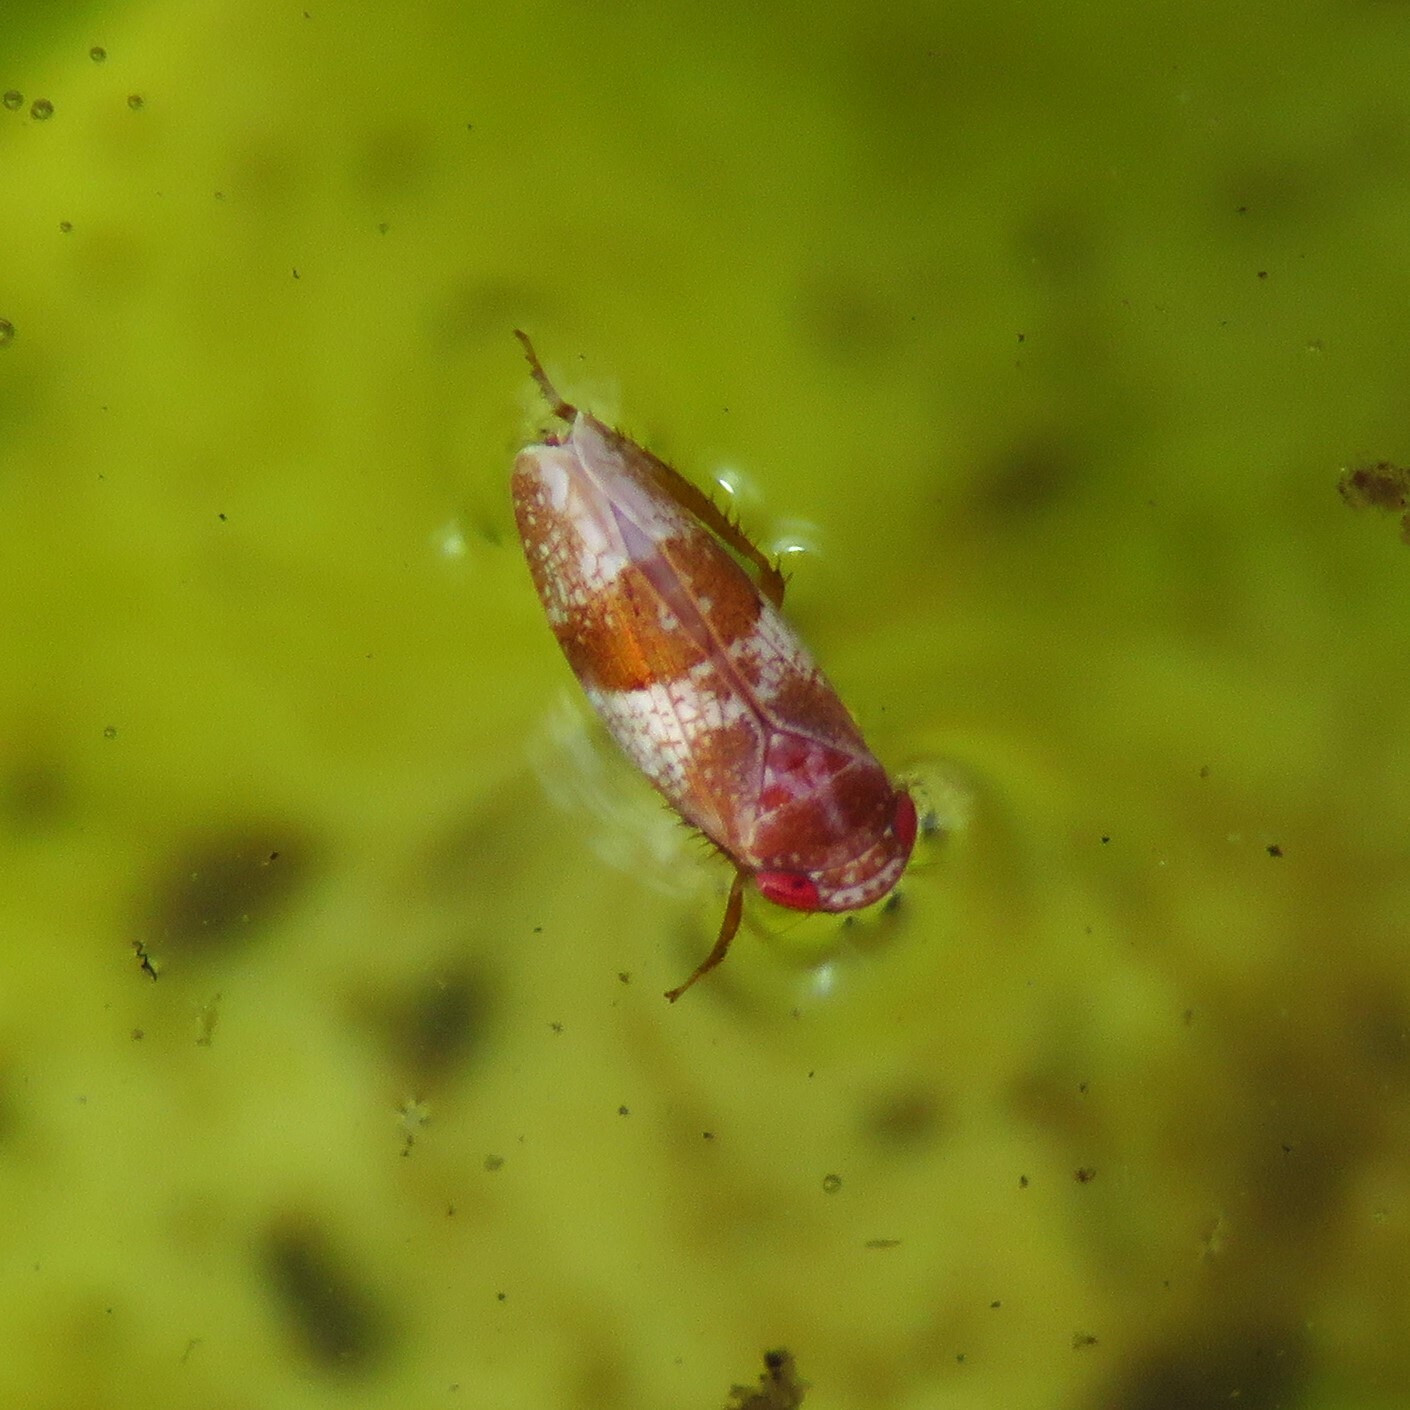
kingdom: Animalia
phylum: Arthropoda
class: Insecta
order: Hemiptera
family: Cicadellidae
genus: Norvellina
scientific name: Norvellina helenae
